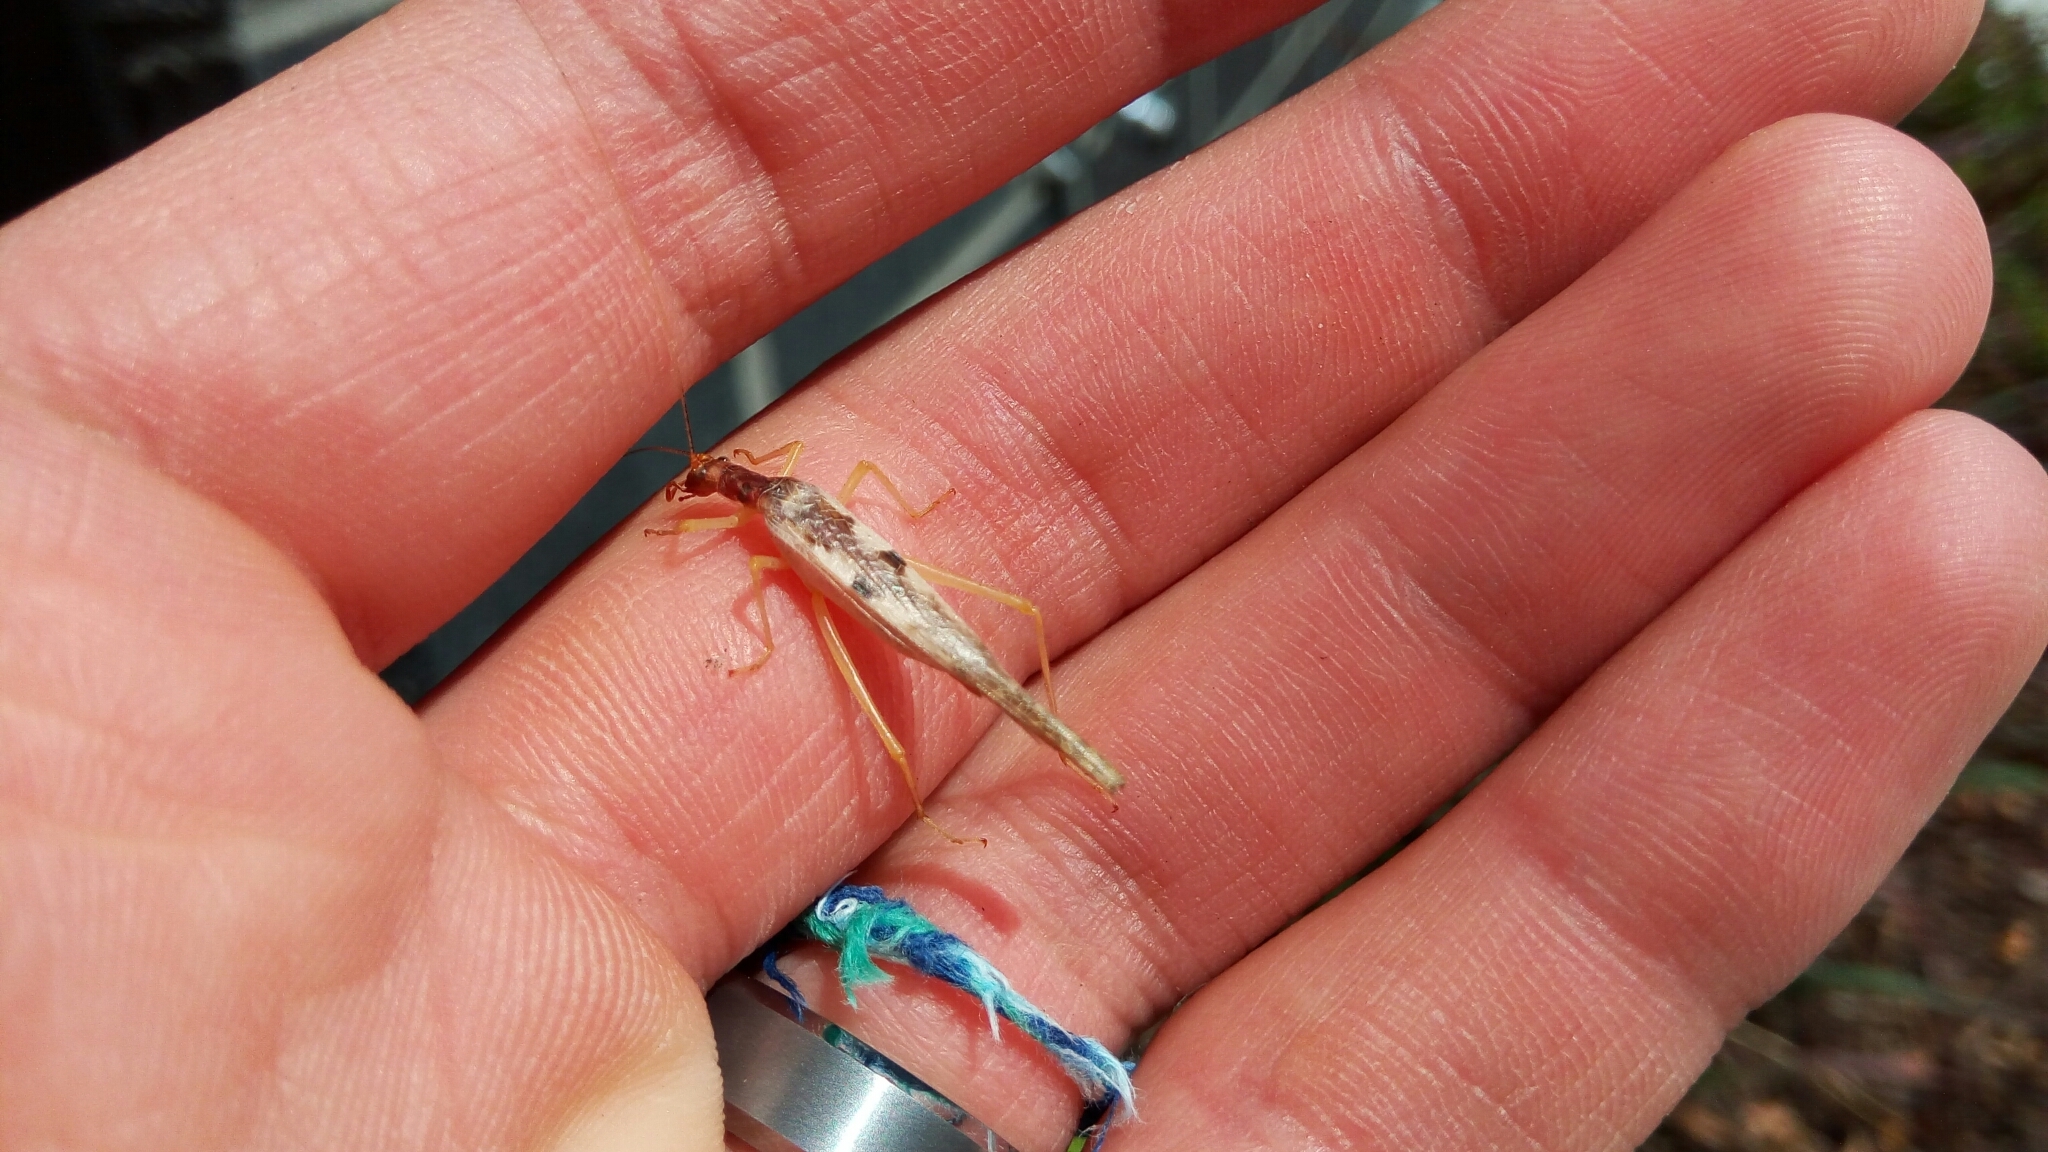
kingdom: Animalia
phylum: Arthropoda
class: Insecta
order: Orthoptera
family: Gryllidae
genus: Neoxabea
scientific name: Neoxabea bipunctata
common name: Two-spotted tree cricket
